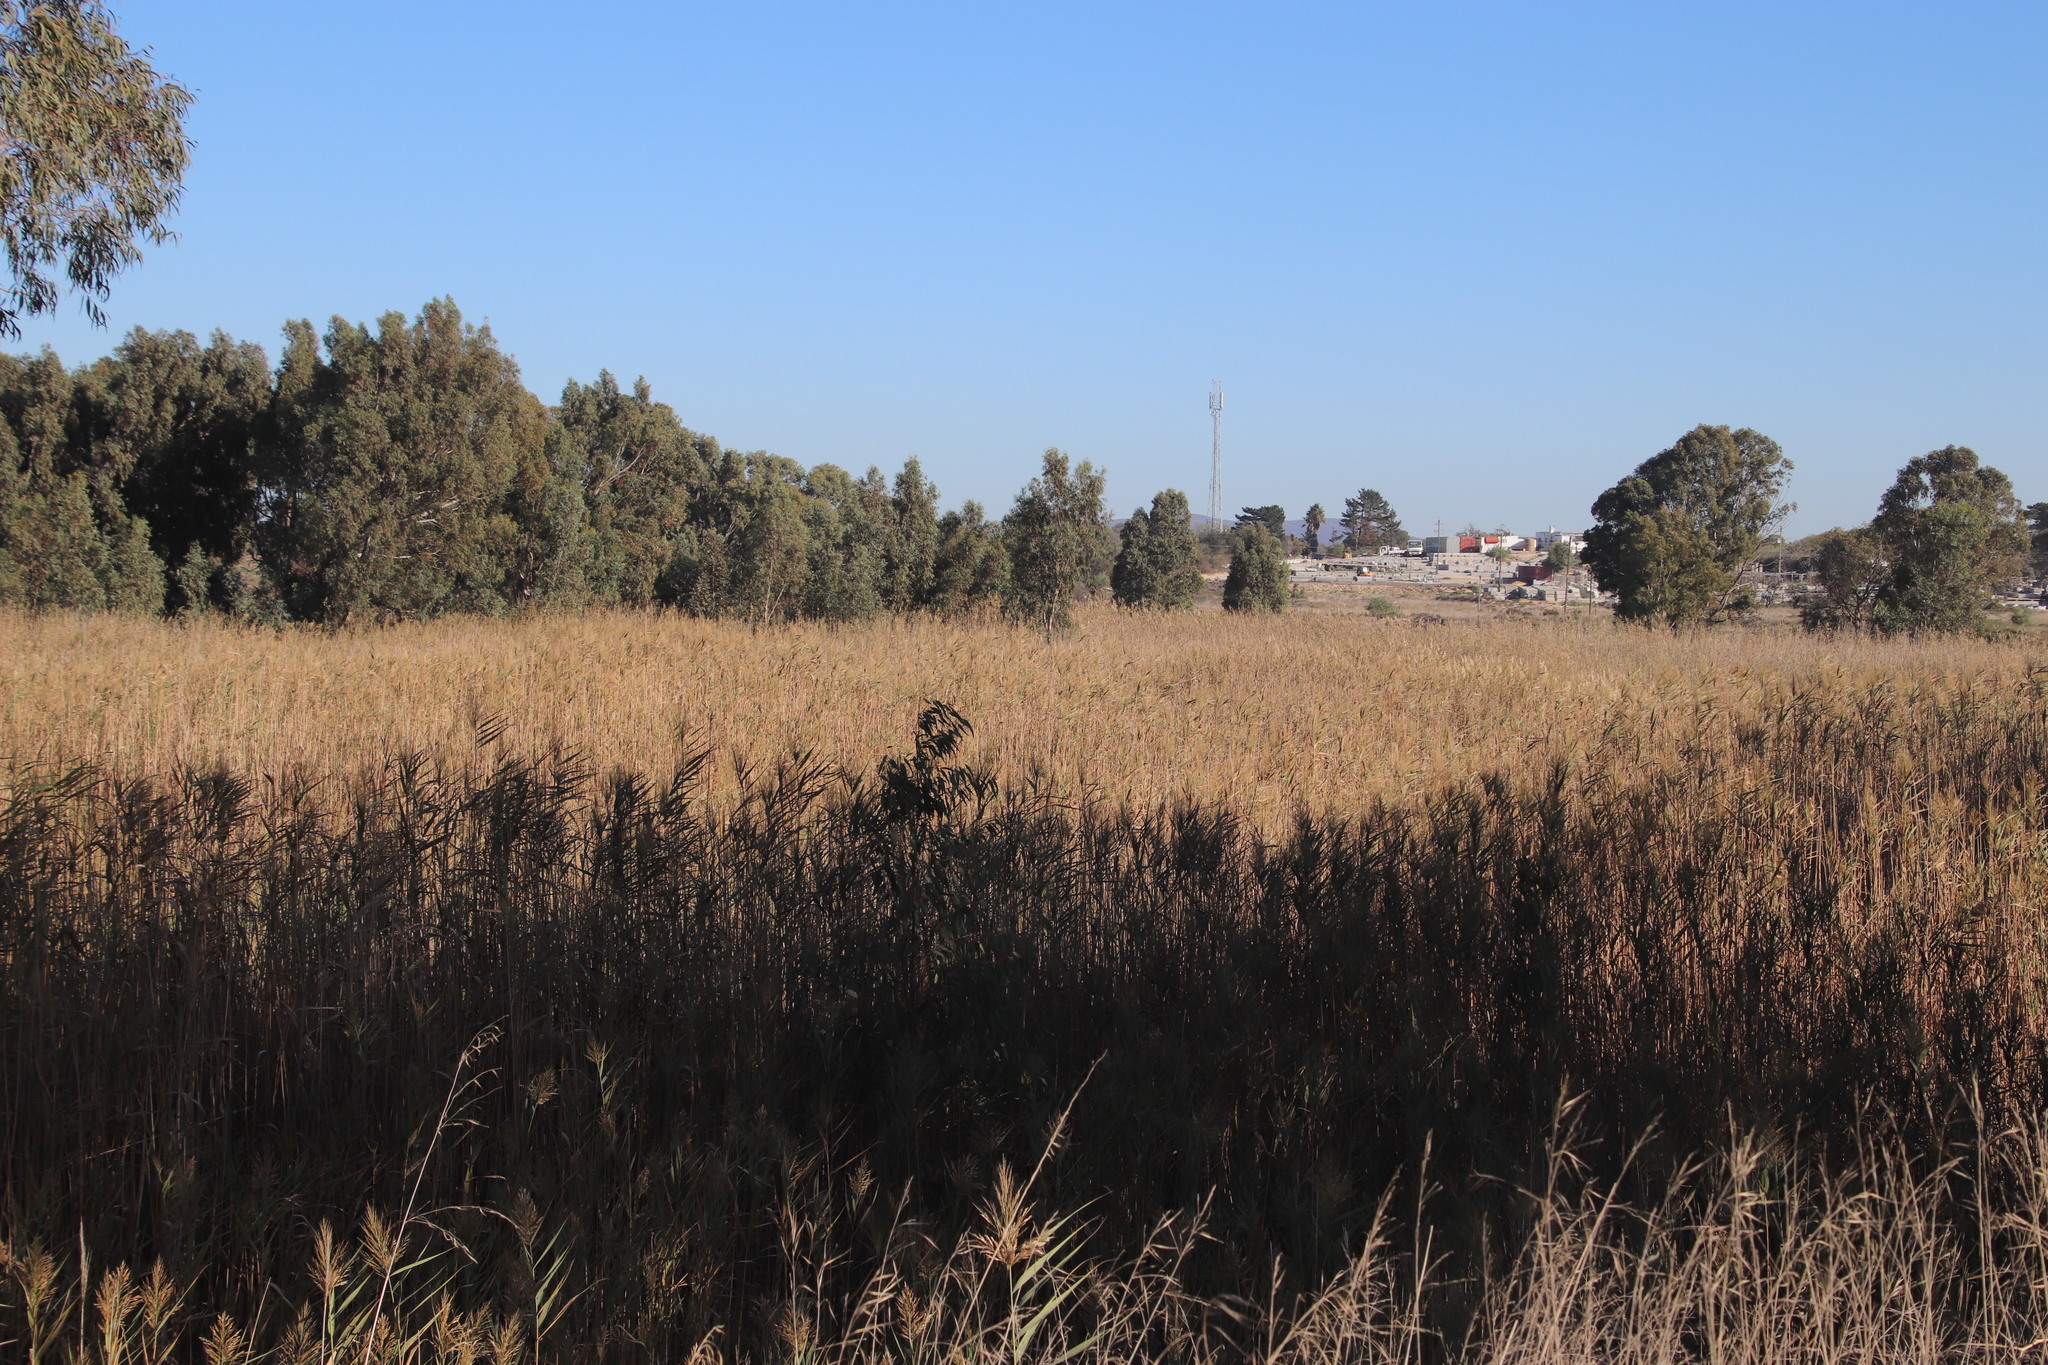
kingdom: Plantae
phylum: Tracheophyta
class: Liliopsida
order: Poales
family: Poaceae
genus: Phragmites
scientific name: Phragmites australis
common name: Common reed
